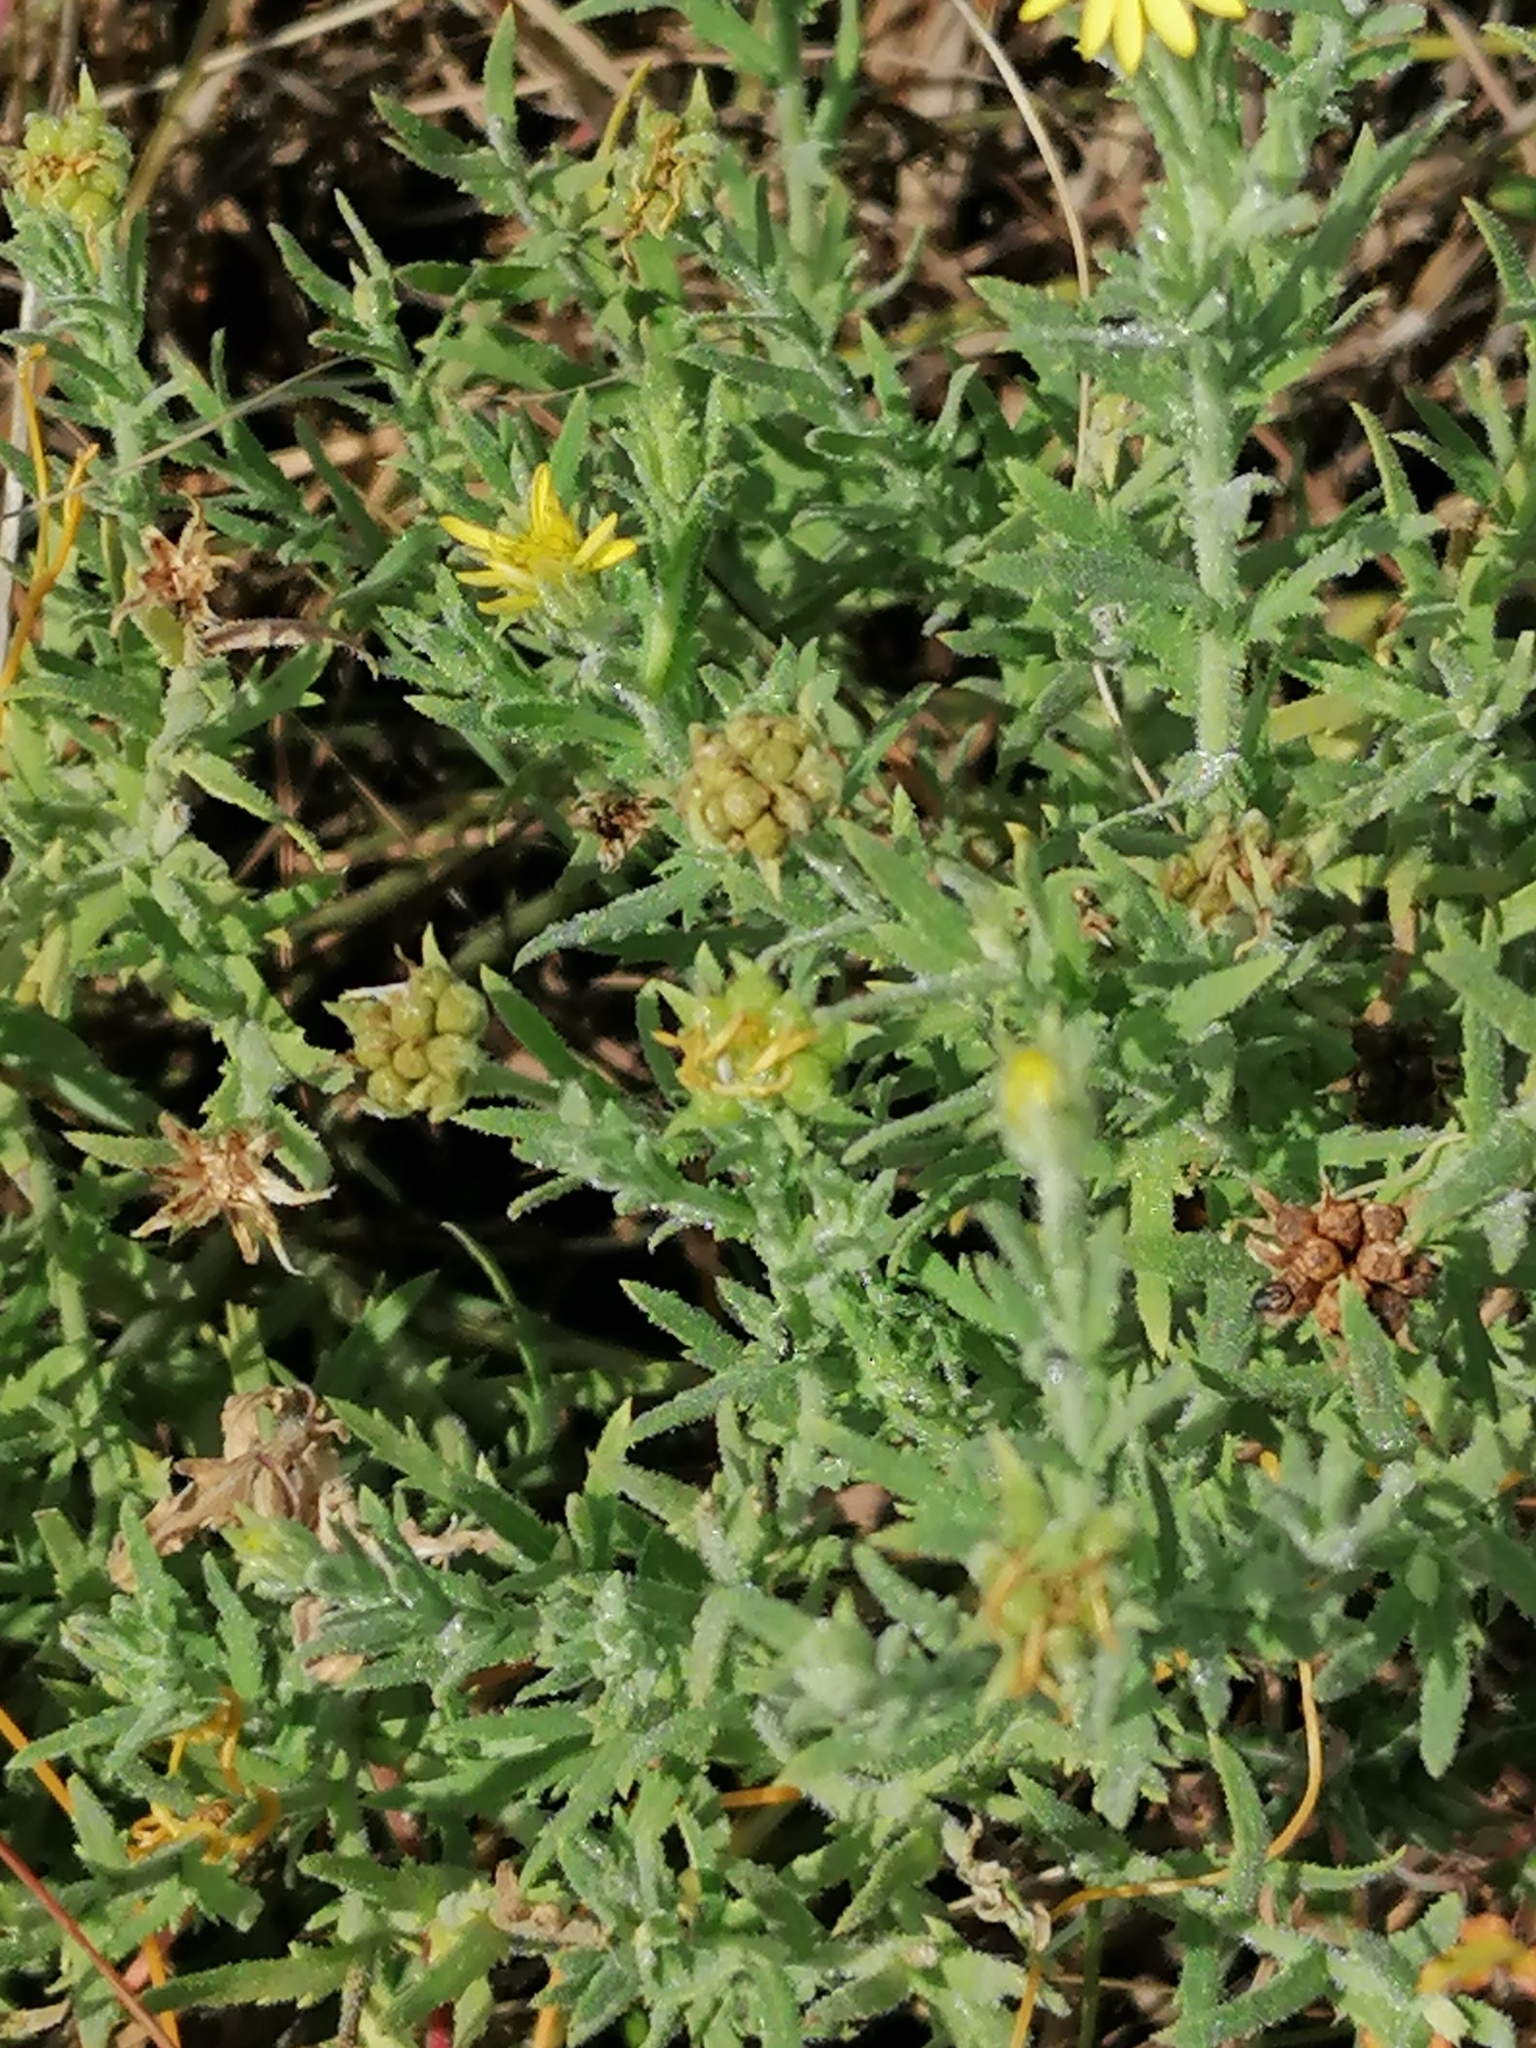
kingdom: Plantae
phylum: Tracheophyta
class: Magnoliopsida
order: Asterales
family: Asteraceae
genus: Osteospermum
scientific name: Osteospermum muricatum
